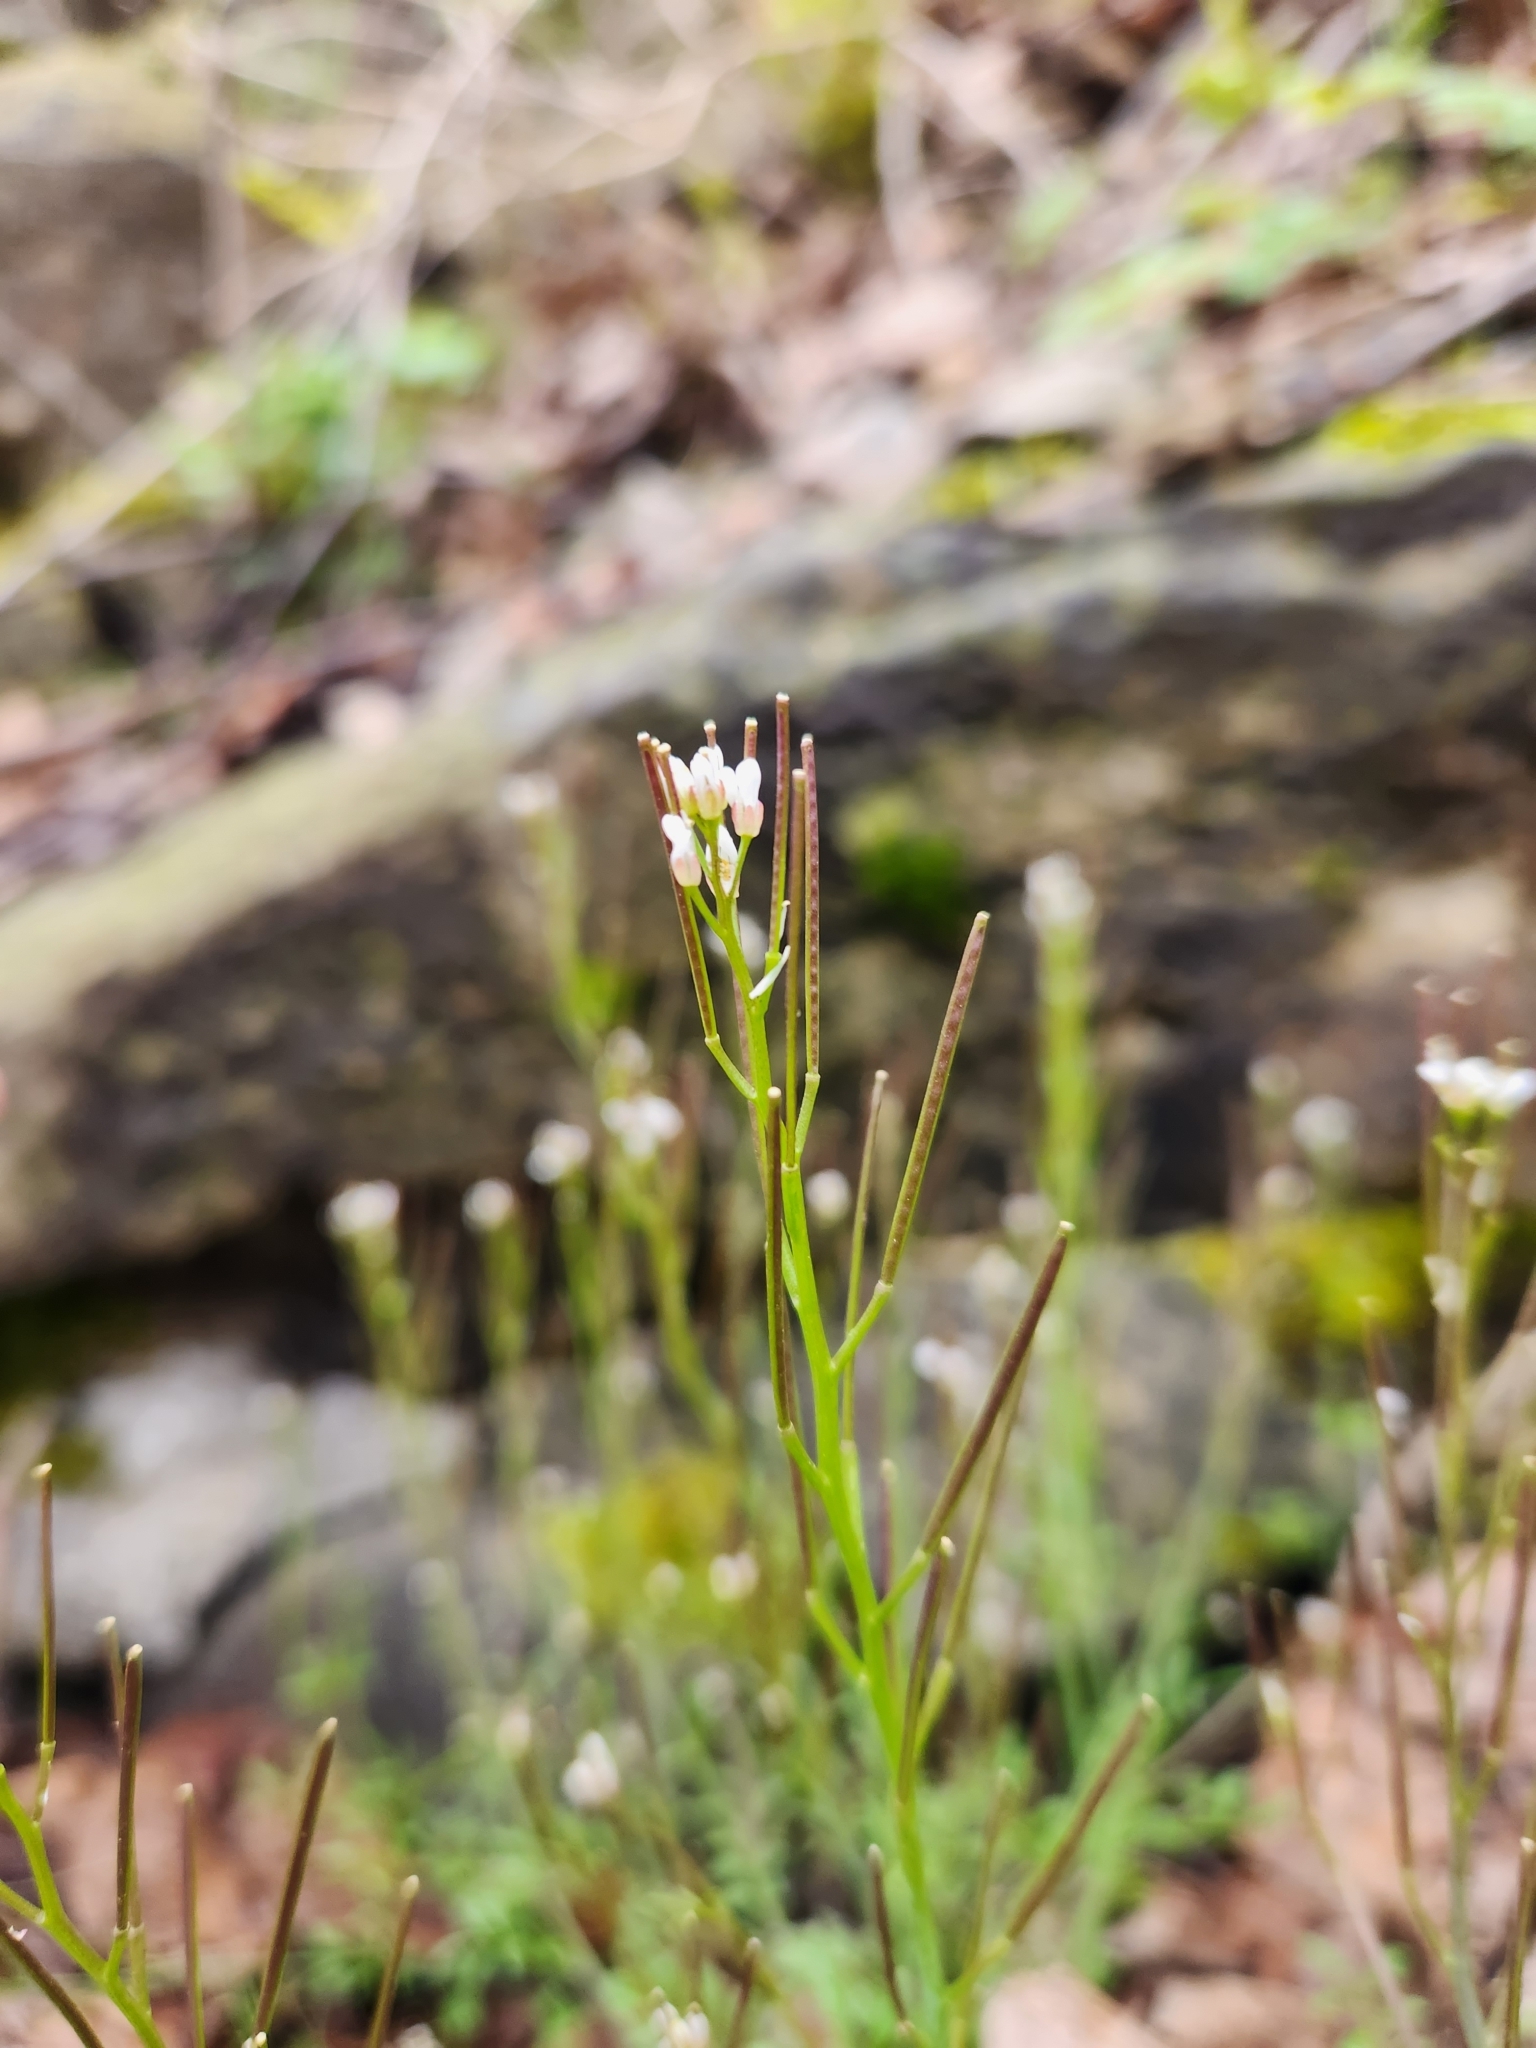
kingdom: Plantae
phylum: Tracheophyta
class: Magnoliopsida
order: Brassicales
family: Brassicaceae
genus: Cardamine
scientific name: Cardamine hirsuta
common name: Hairy bittercress
